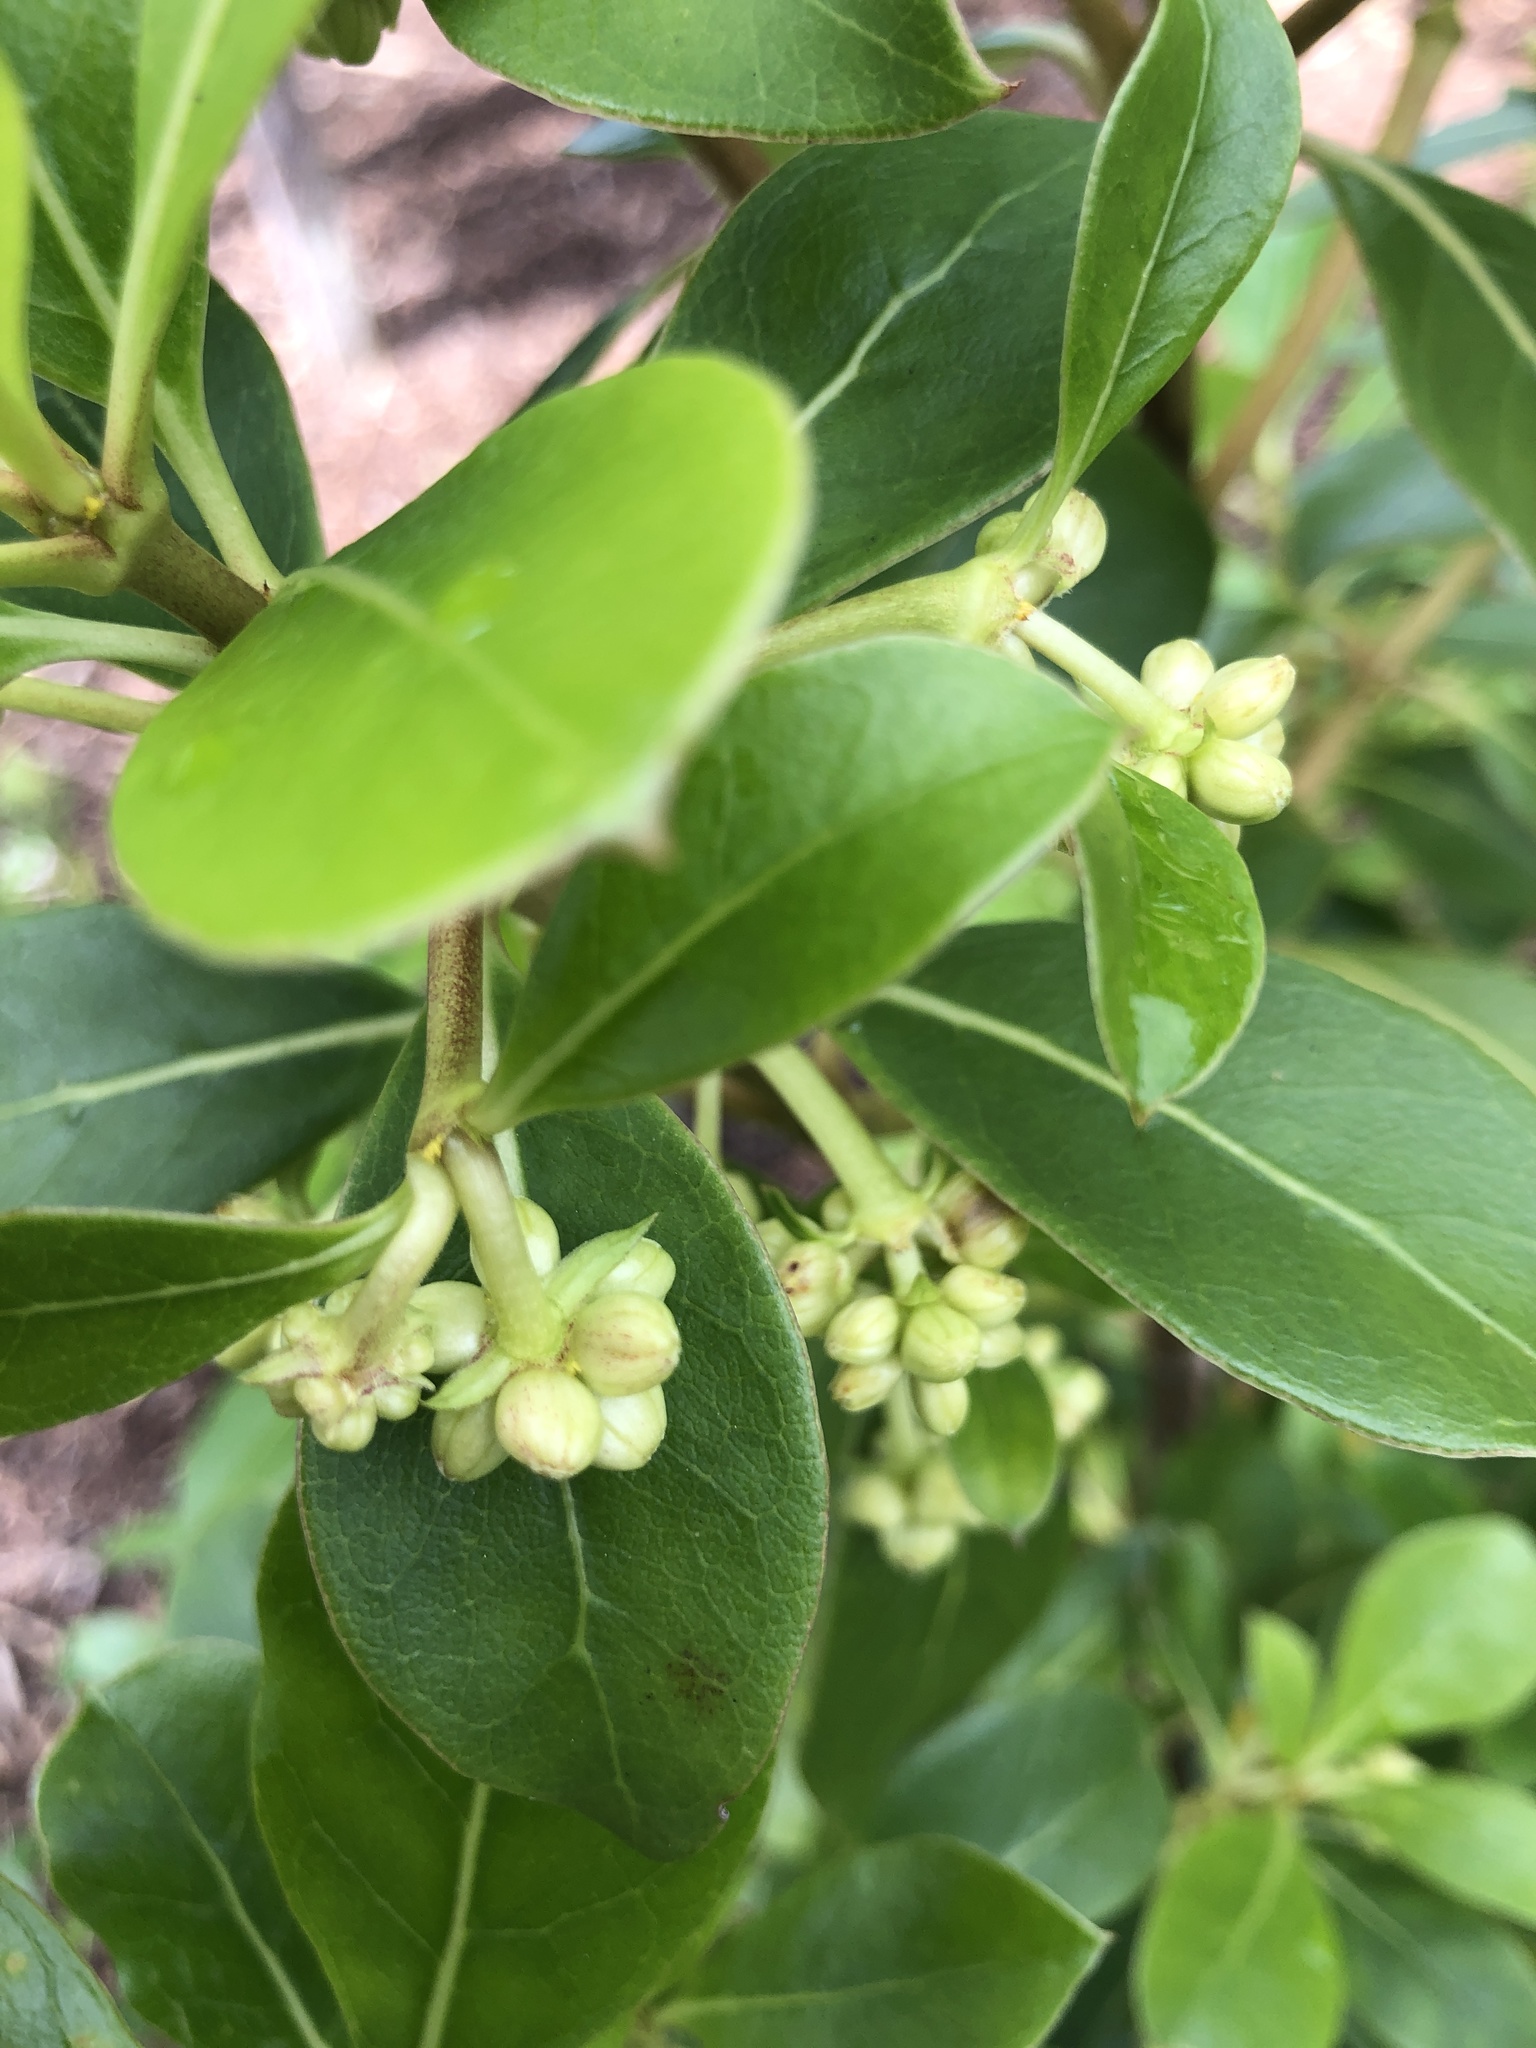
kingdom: Plantae
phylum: Tracheophyta
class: Magnoliopsida
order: Gentianales
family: Rubiaceae
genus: Coprosma
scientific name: Coprosma lucida
